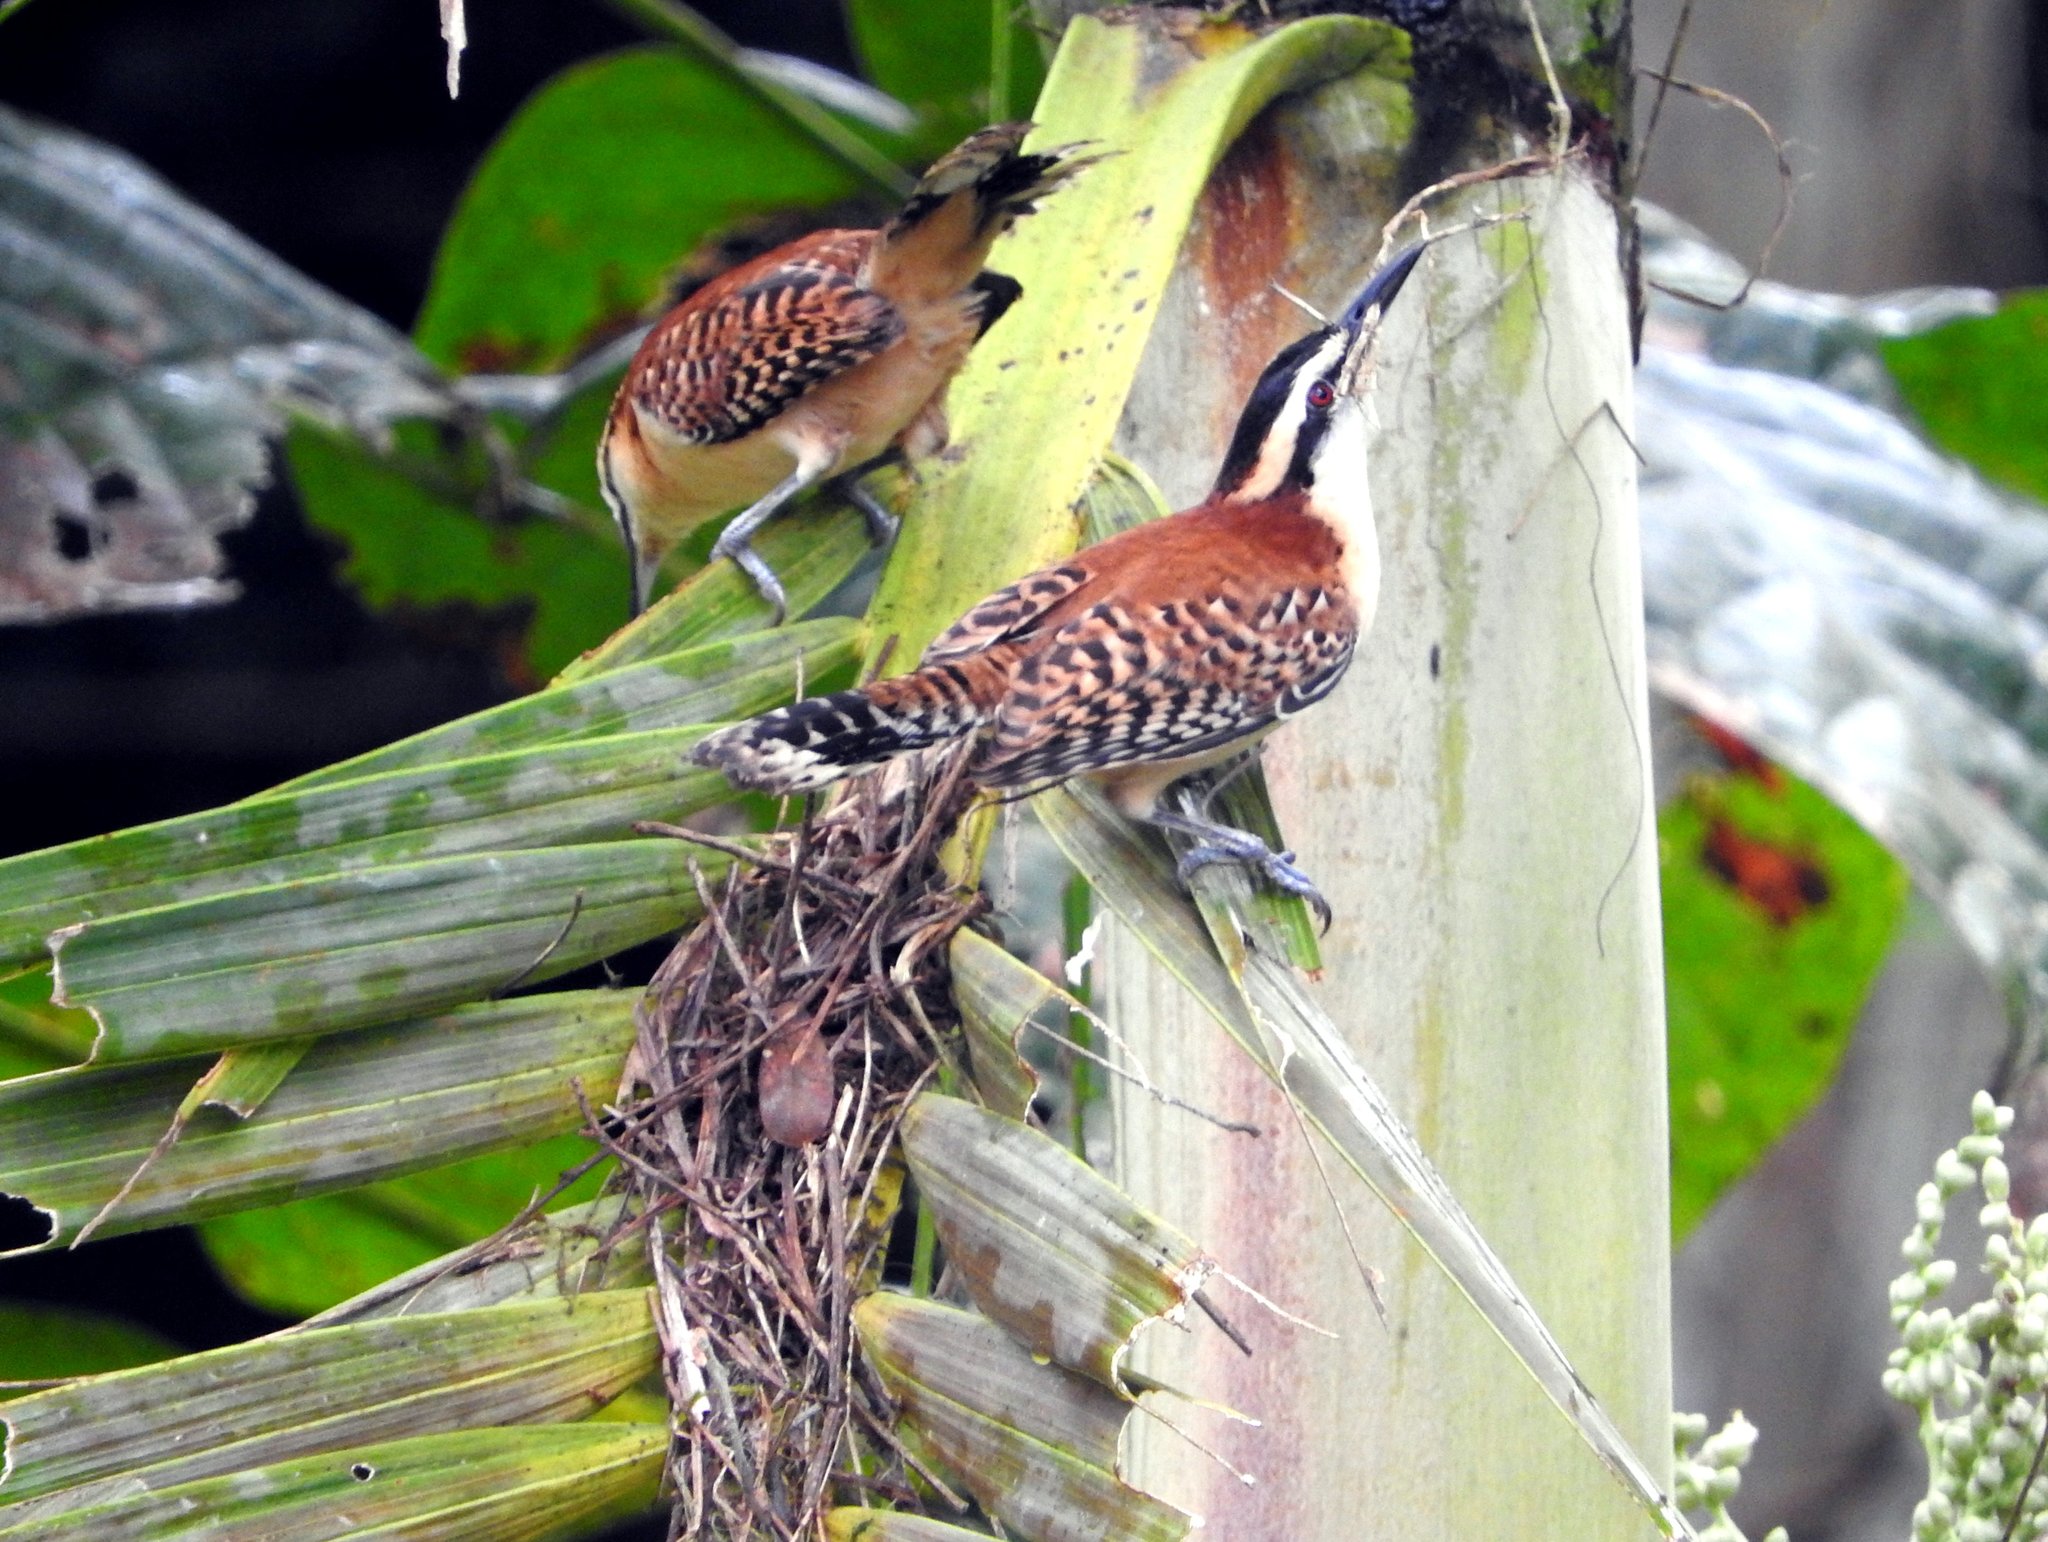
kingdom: Animalia
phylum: Chordata
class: Aves
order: Passeriformes
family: Troglodytidae
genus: Campylorhynchus
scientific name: Campylorhynchus rufinucha
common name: Rufous-naped wren
